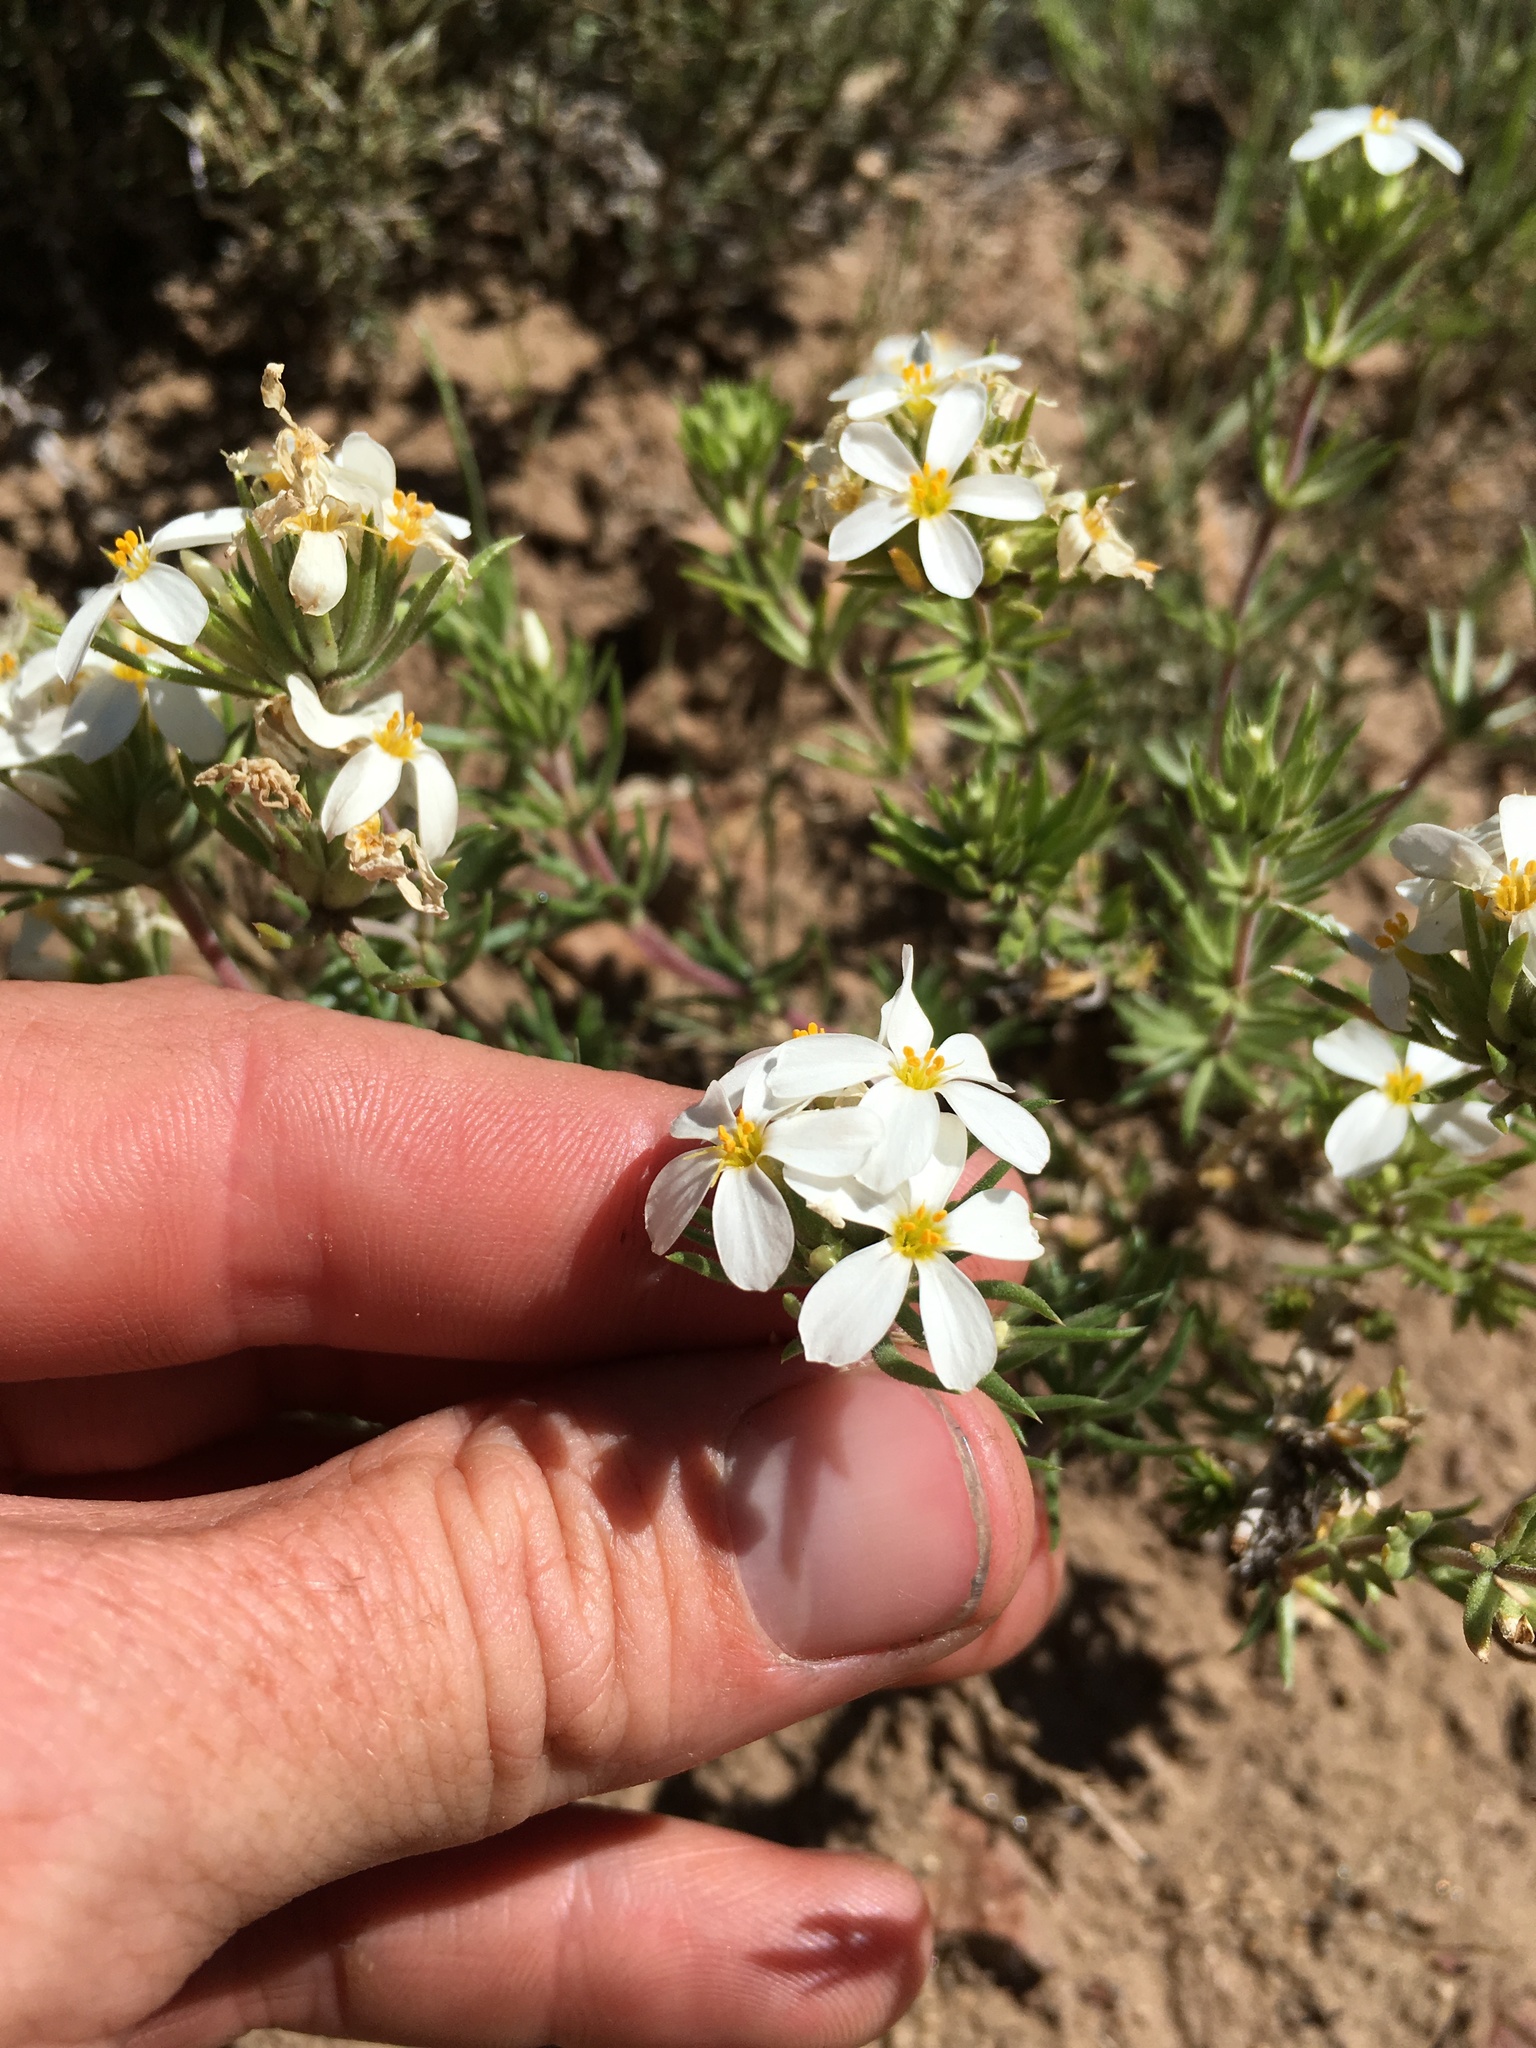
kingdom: Plantae
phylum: Tracheophyta
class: Magnoliopsida
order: Ericales
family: Polemoniaceae
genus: Leptosiphon
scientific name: Leptosiphon nuttallii
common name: Nuttall's linanthus
